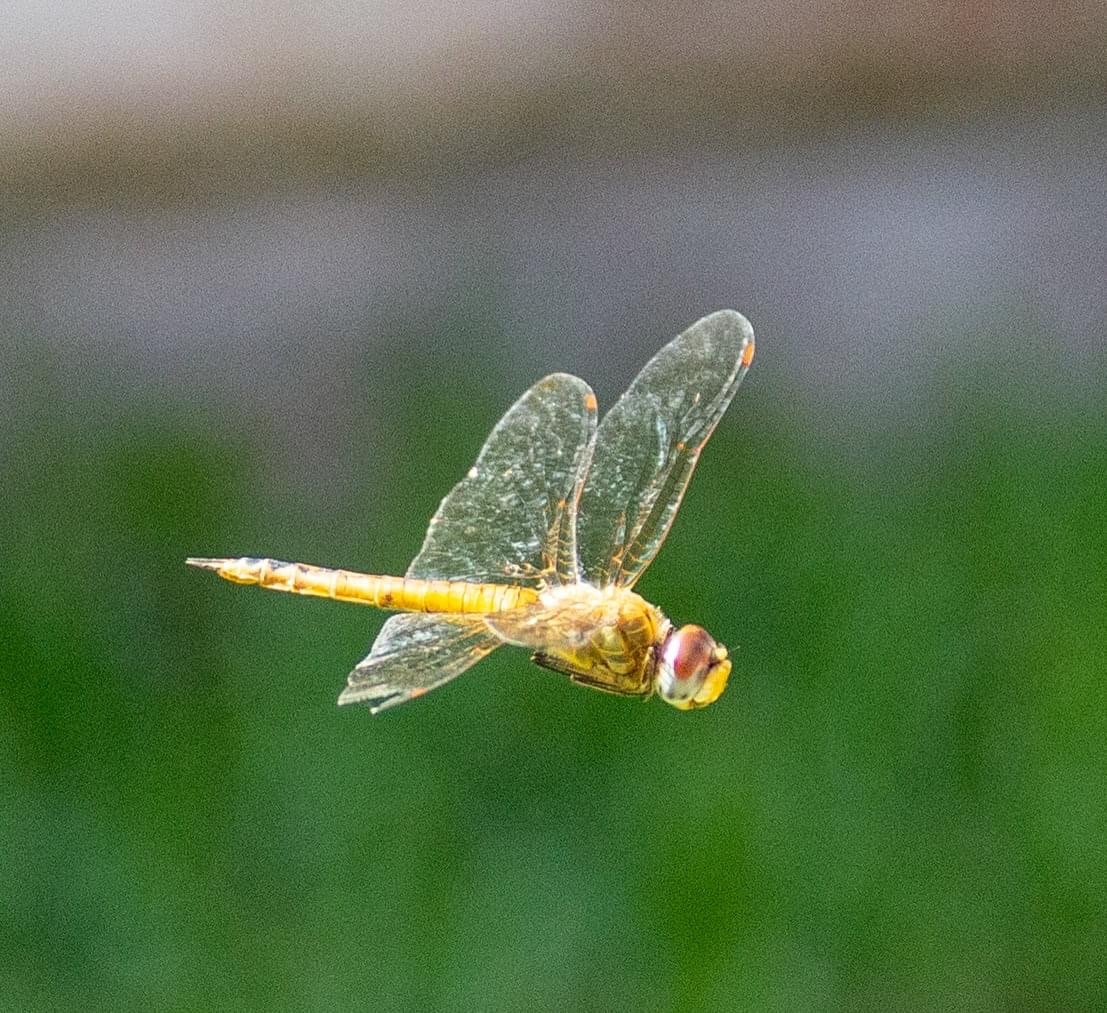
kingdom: Animalia
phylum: Arthropoda
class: Insecta
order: Odonata
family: Libellulidae
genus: Pantala
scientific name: Pantala flavescens
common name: Wandering glider
